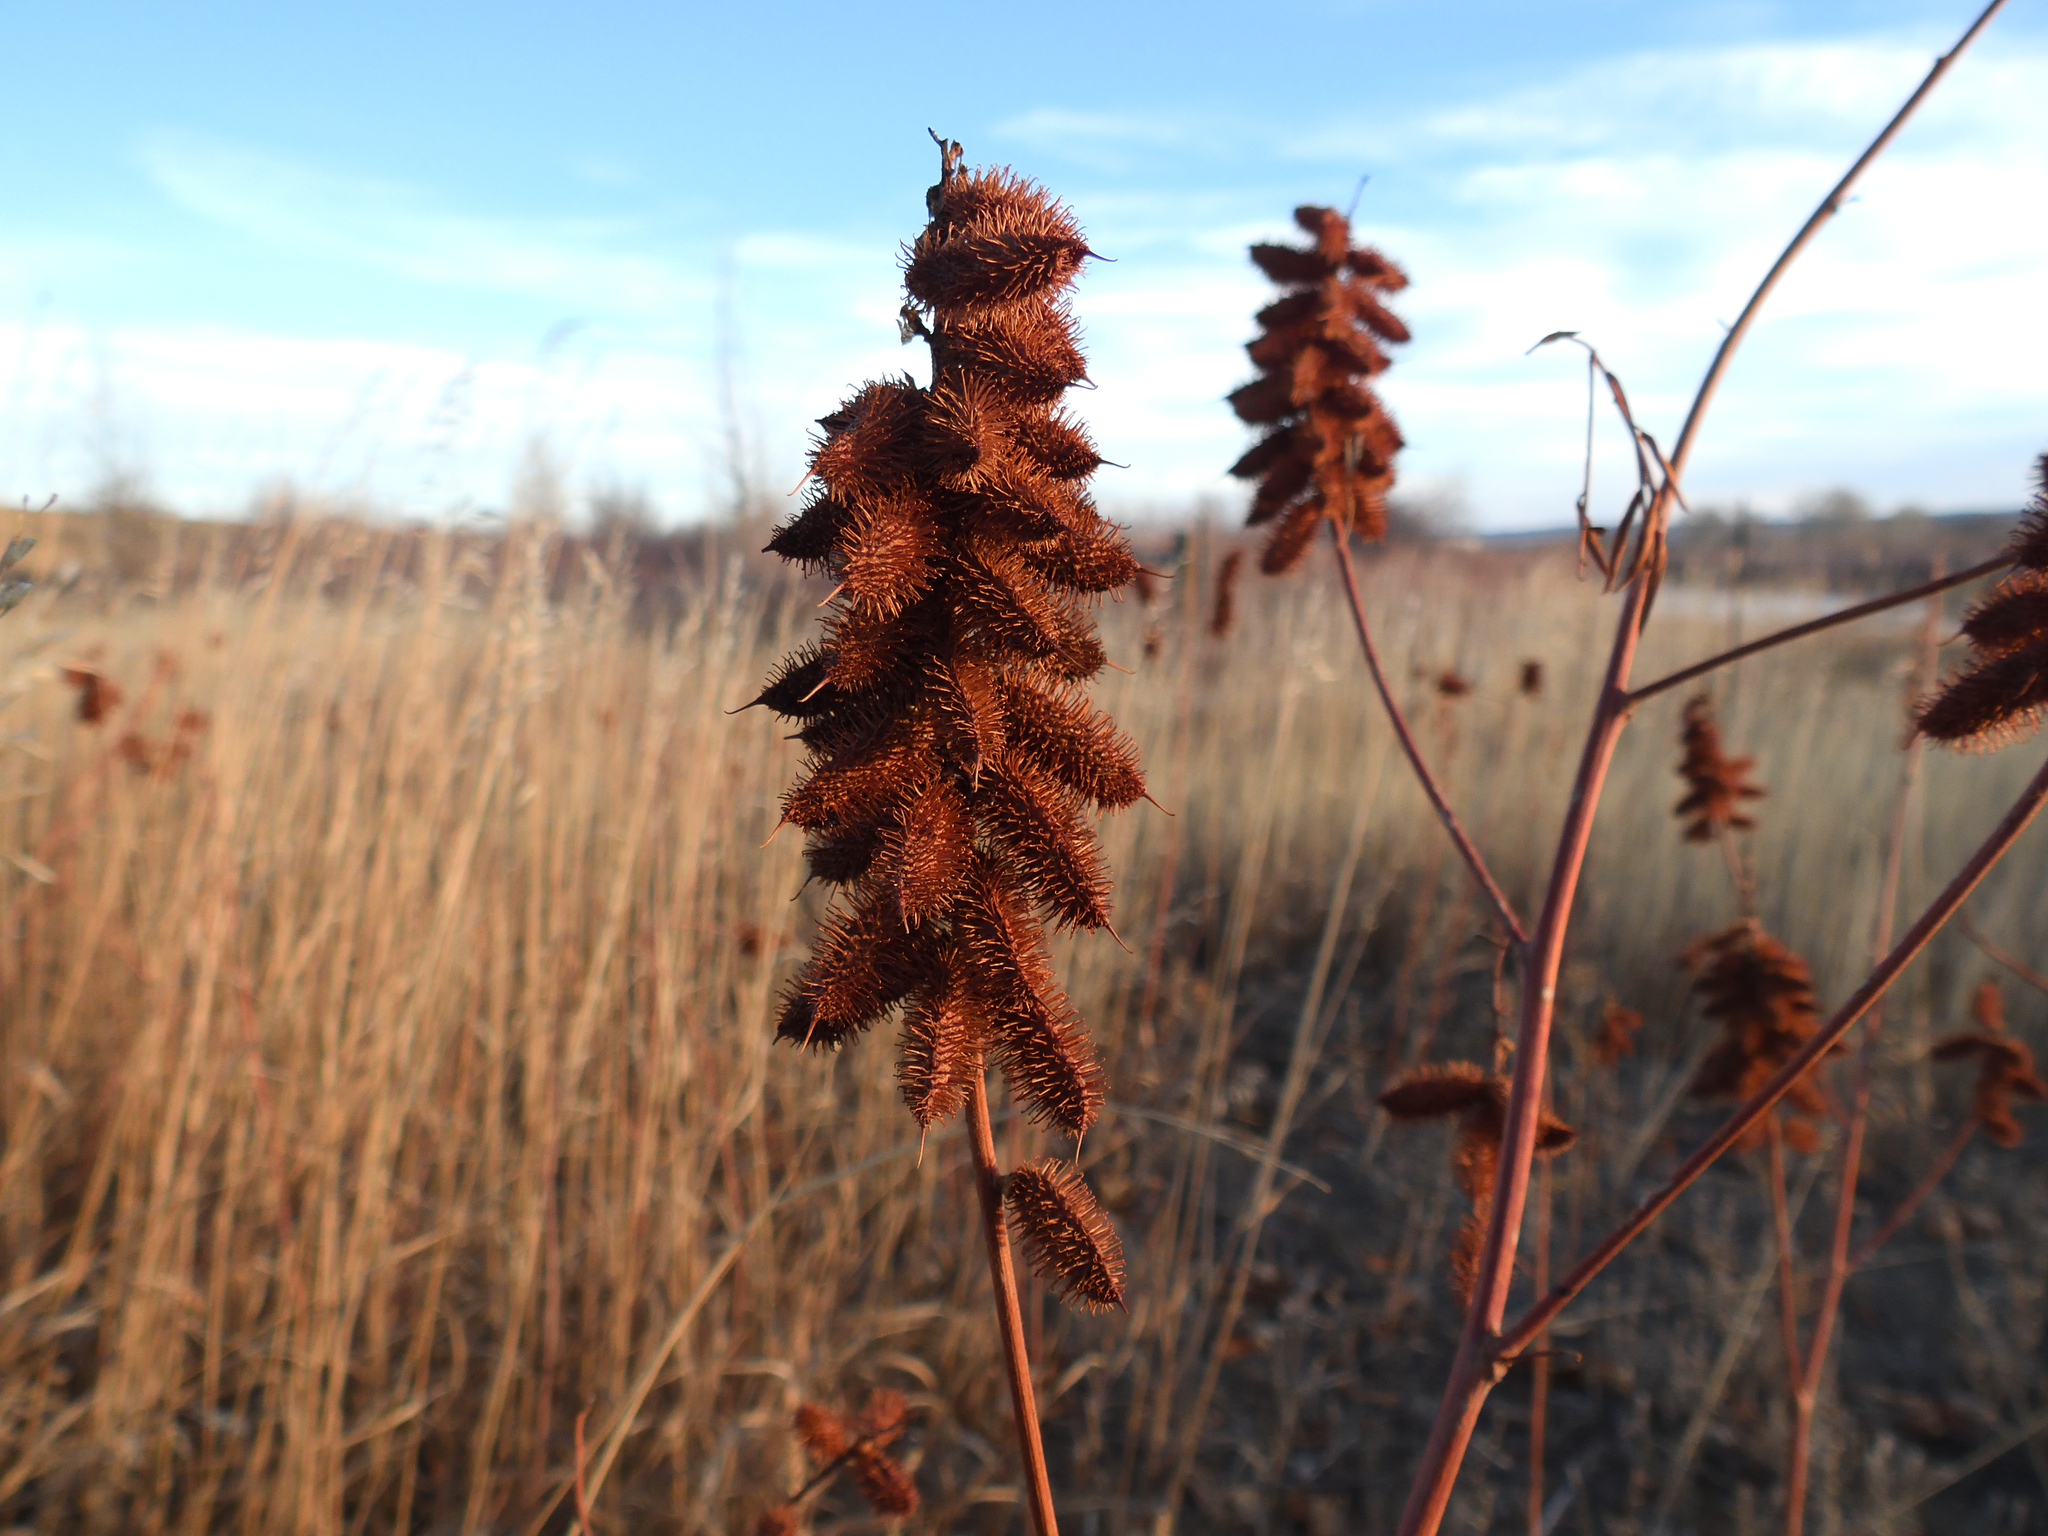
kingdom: Plantae
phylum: Tracheophyta
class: Magnoliopsida
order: Fabales
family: Fabaceae
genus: Glycyrrhiza
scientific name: Glycyrrhiza lepidota
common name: American liquorice
